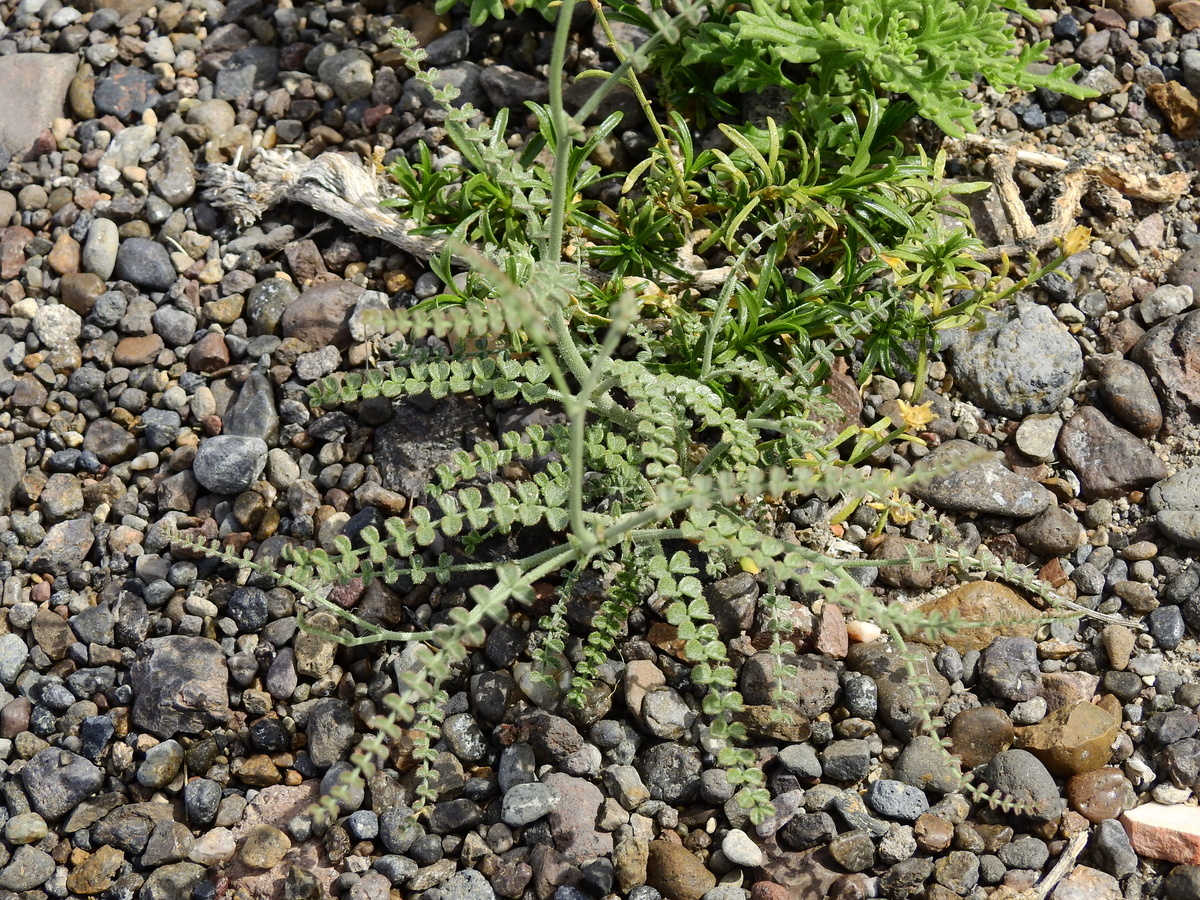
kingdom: Plantae
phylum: Tracheophyta
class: Magnoliopsida
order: Fabales
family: Fabaceae
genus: Adesmia
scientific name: Adesmia boronioides
